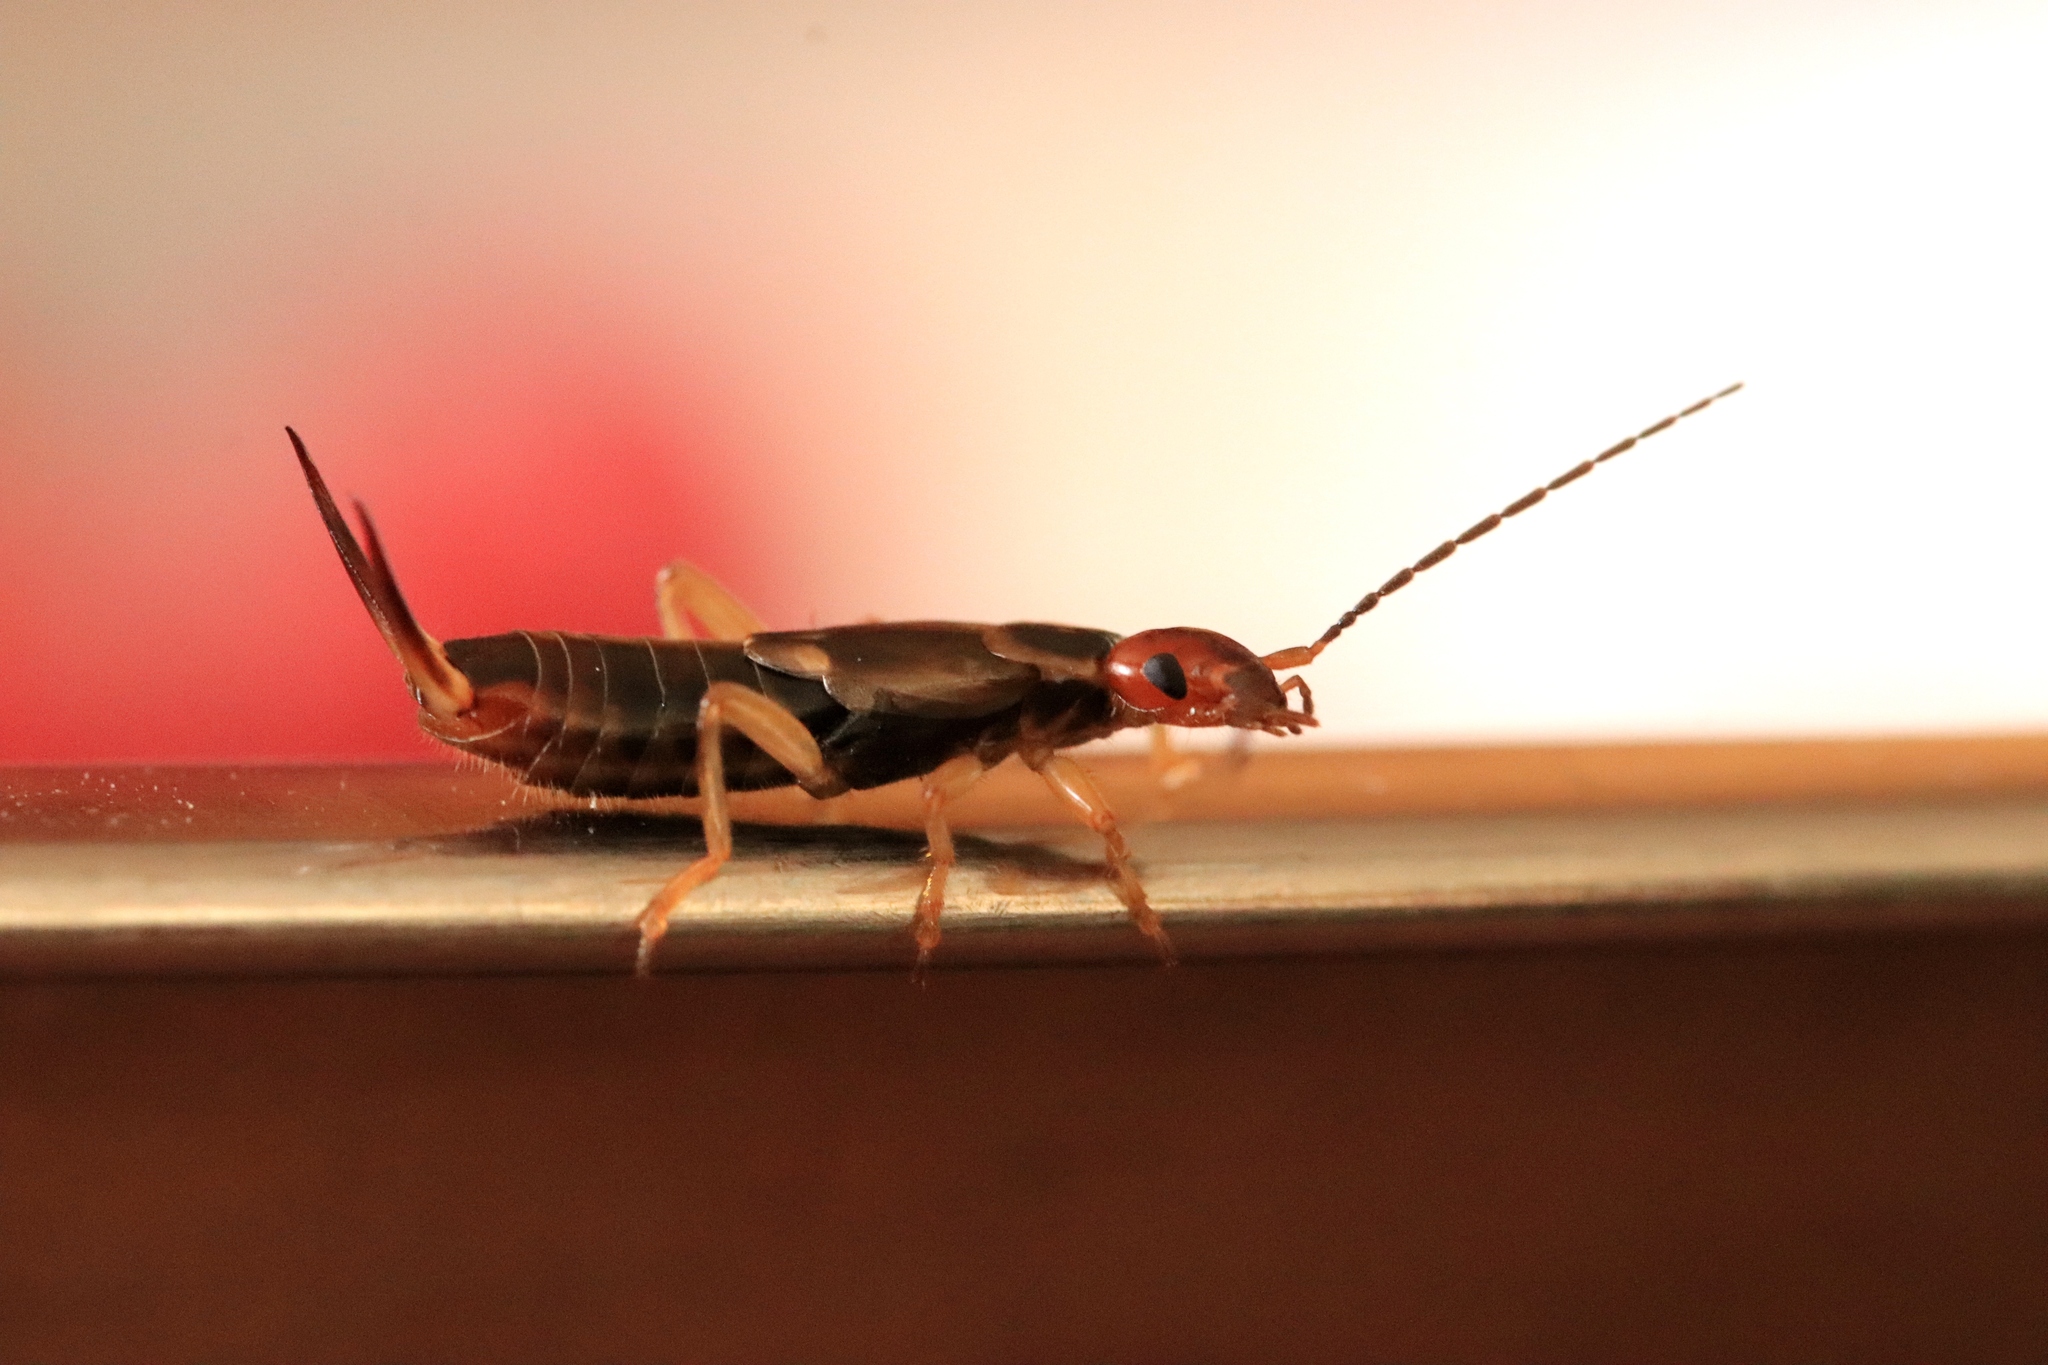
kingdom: Animalia
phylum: Arthropoda
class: Insecta
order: Dermaptera
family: Forficulidae
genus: Forficula
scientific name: Forficula dentata
